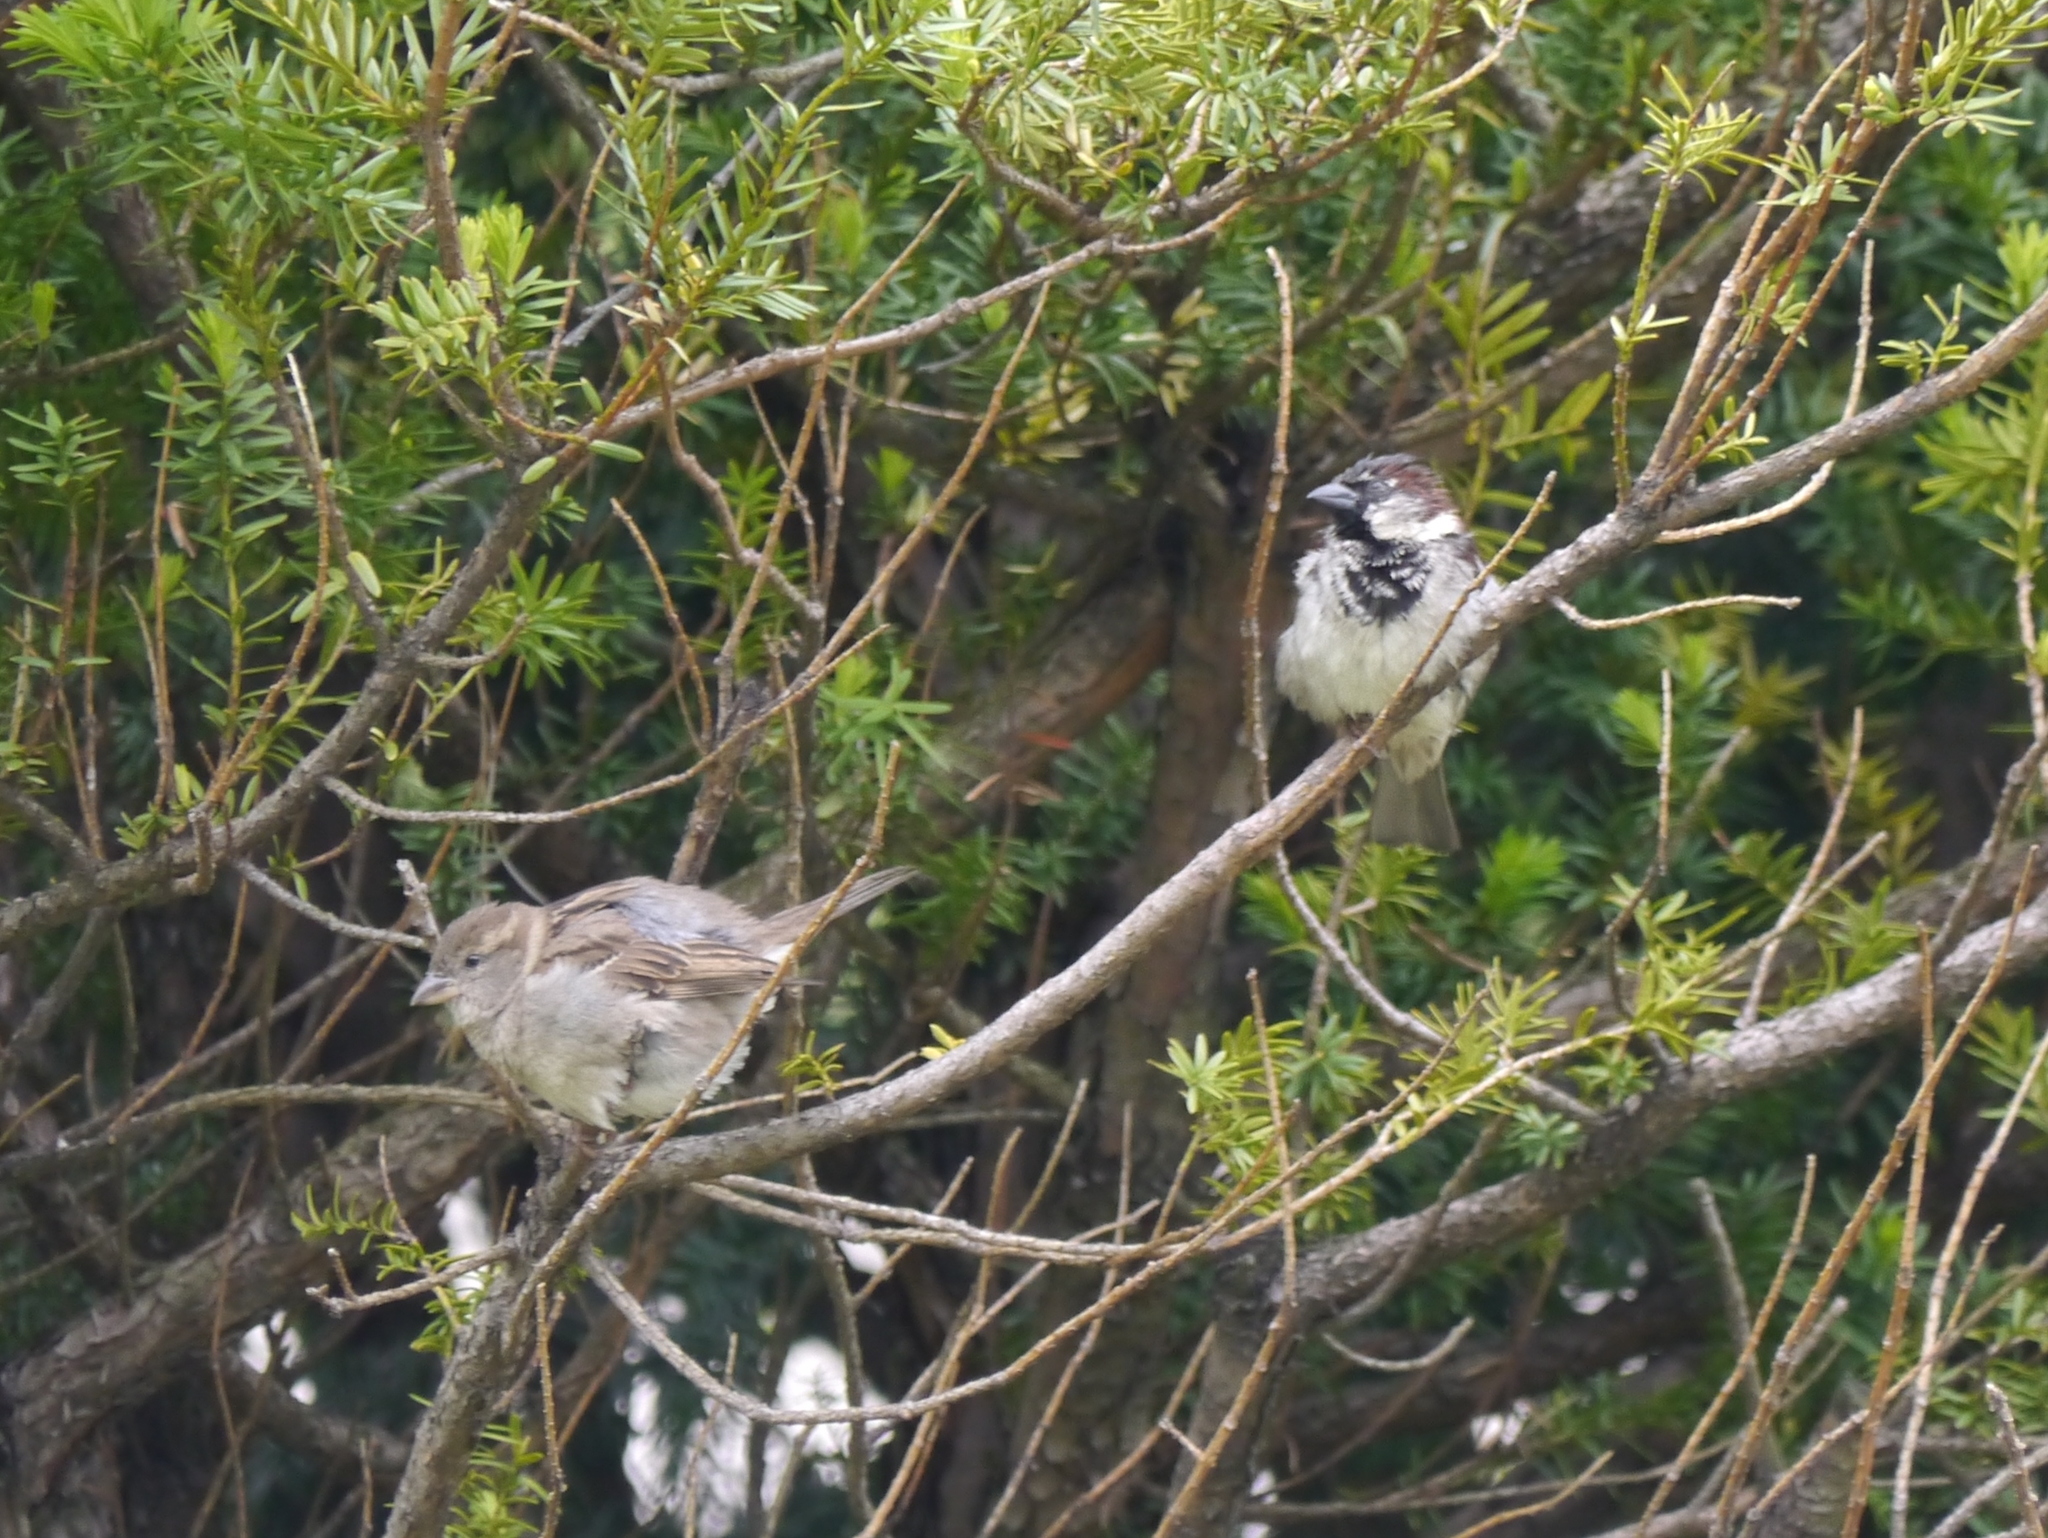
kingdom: Animalia
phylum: Chordata
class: Aves
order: Passeriformes
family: Passeridae
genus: Passer
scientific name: Passer domesticus
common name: House sparrow
